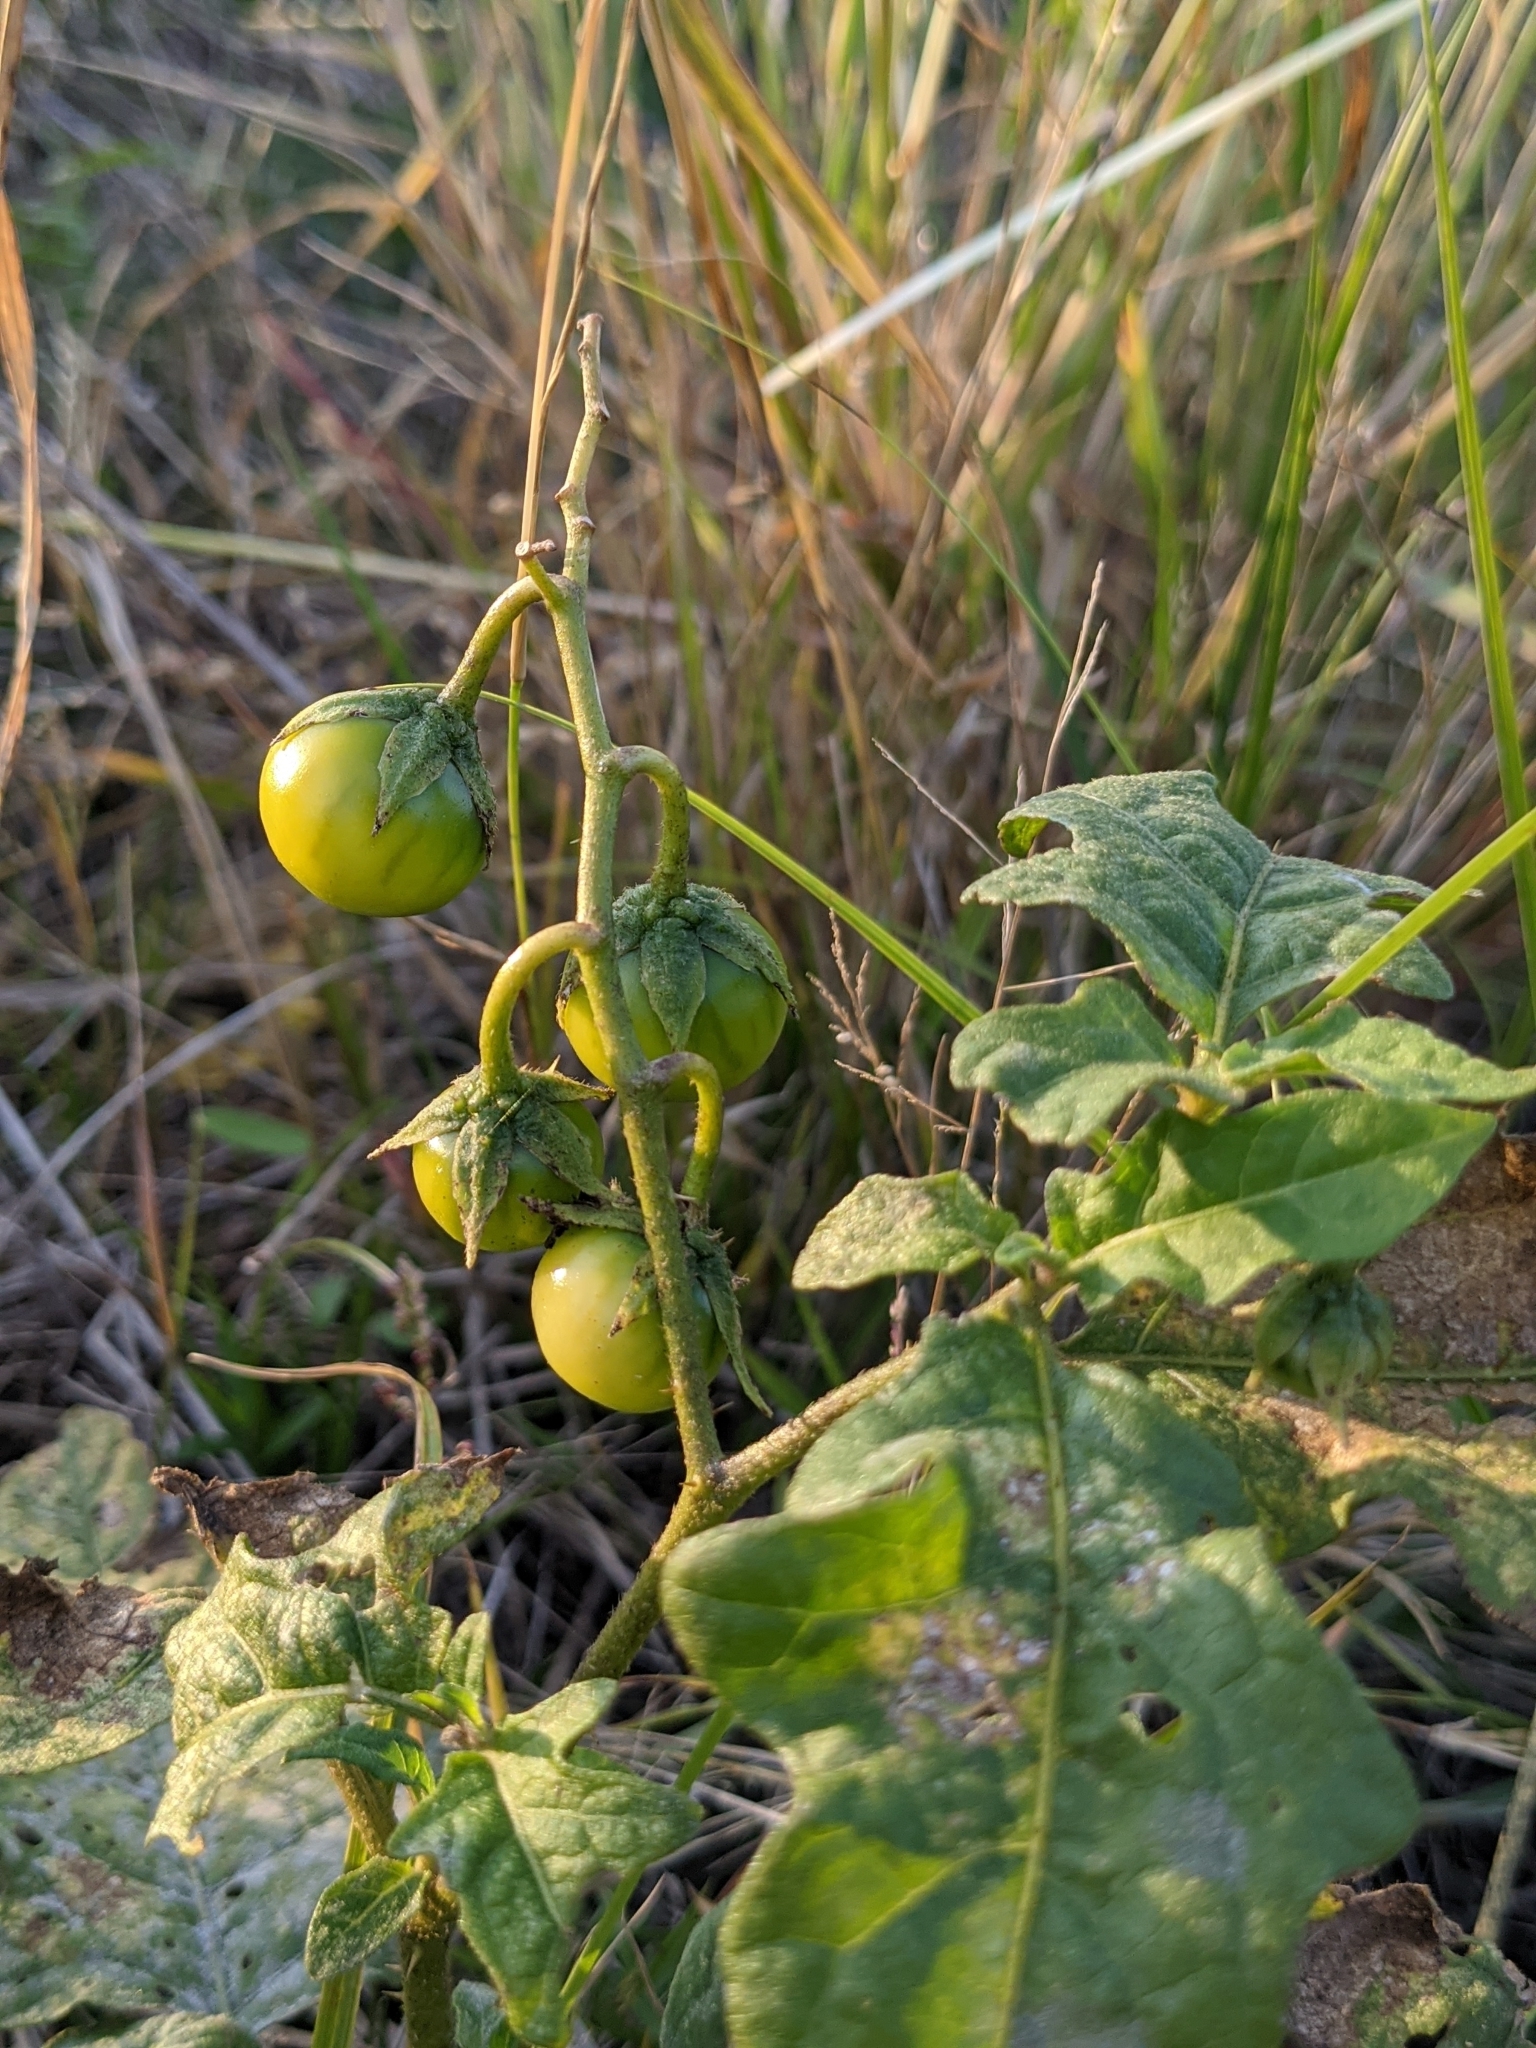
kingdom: Plantae
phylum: Tracheophyta
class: Magnoliopsida
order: Solanales
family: Solanaceae
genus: Solanum
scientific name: Solanum carolinense
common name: Horse-nettle
